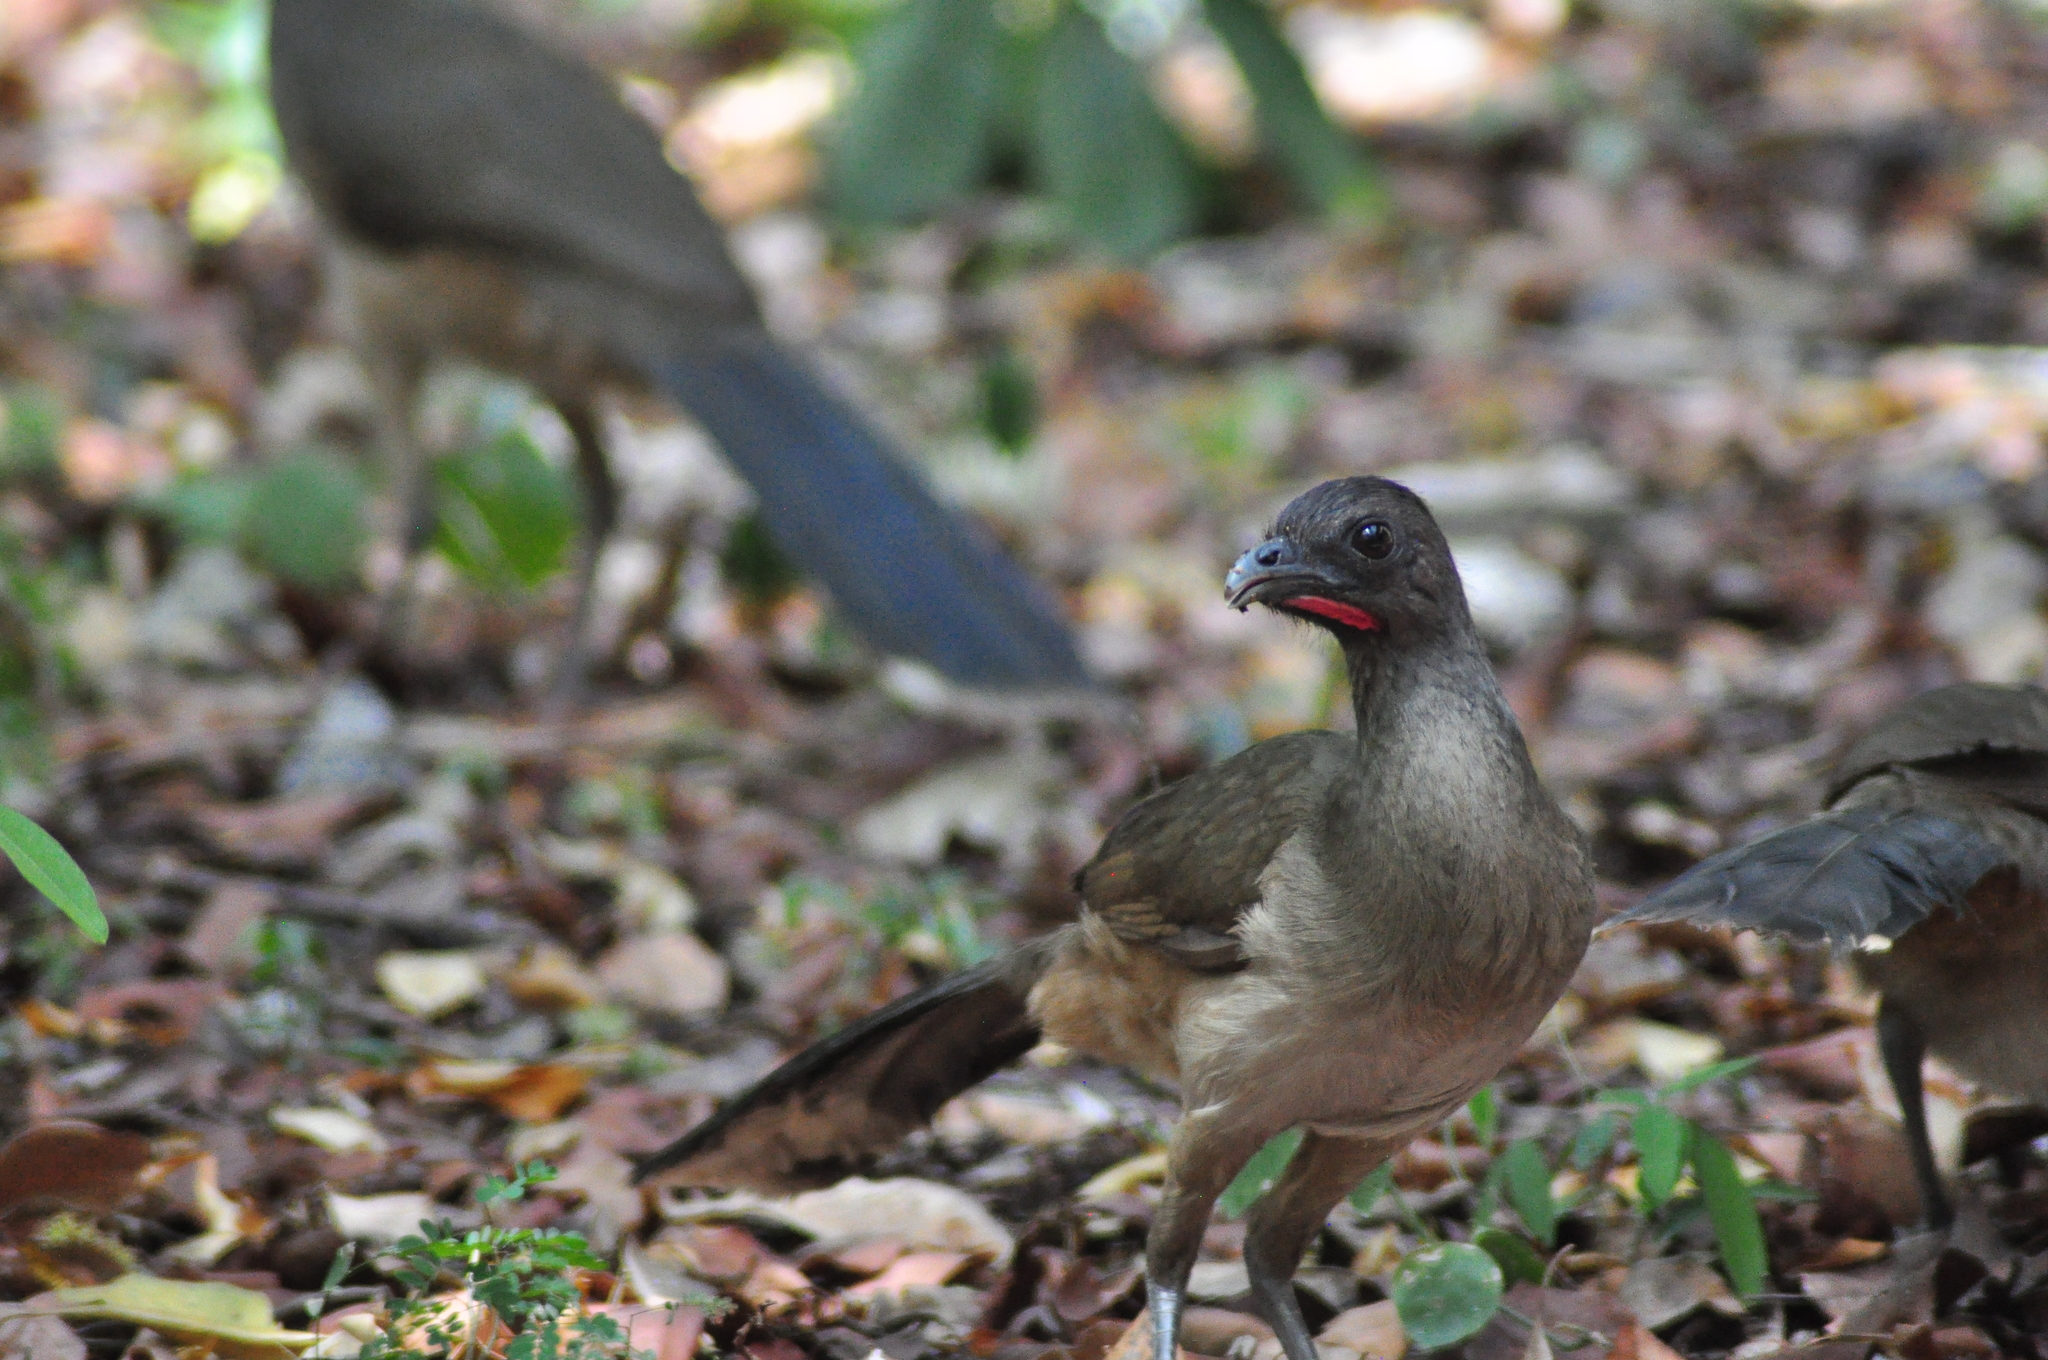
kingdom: Animalia
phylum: Chordata
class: Aves
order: Galliformes
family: Cracidae
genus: Ortalis
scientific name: Ortalis vetula
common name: Plain chachalaca
